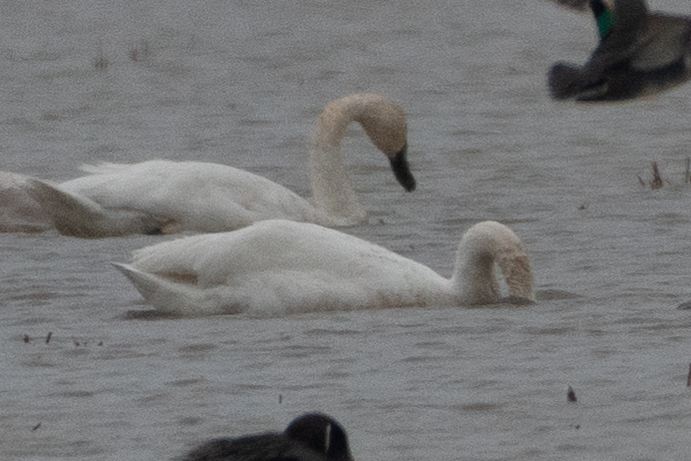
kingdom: Animalia
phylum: Chordata
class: Aves
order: Anseriformes
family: Anatidae
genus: Cygnus
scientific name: Cygnus columbianus
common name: Tundra swan
